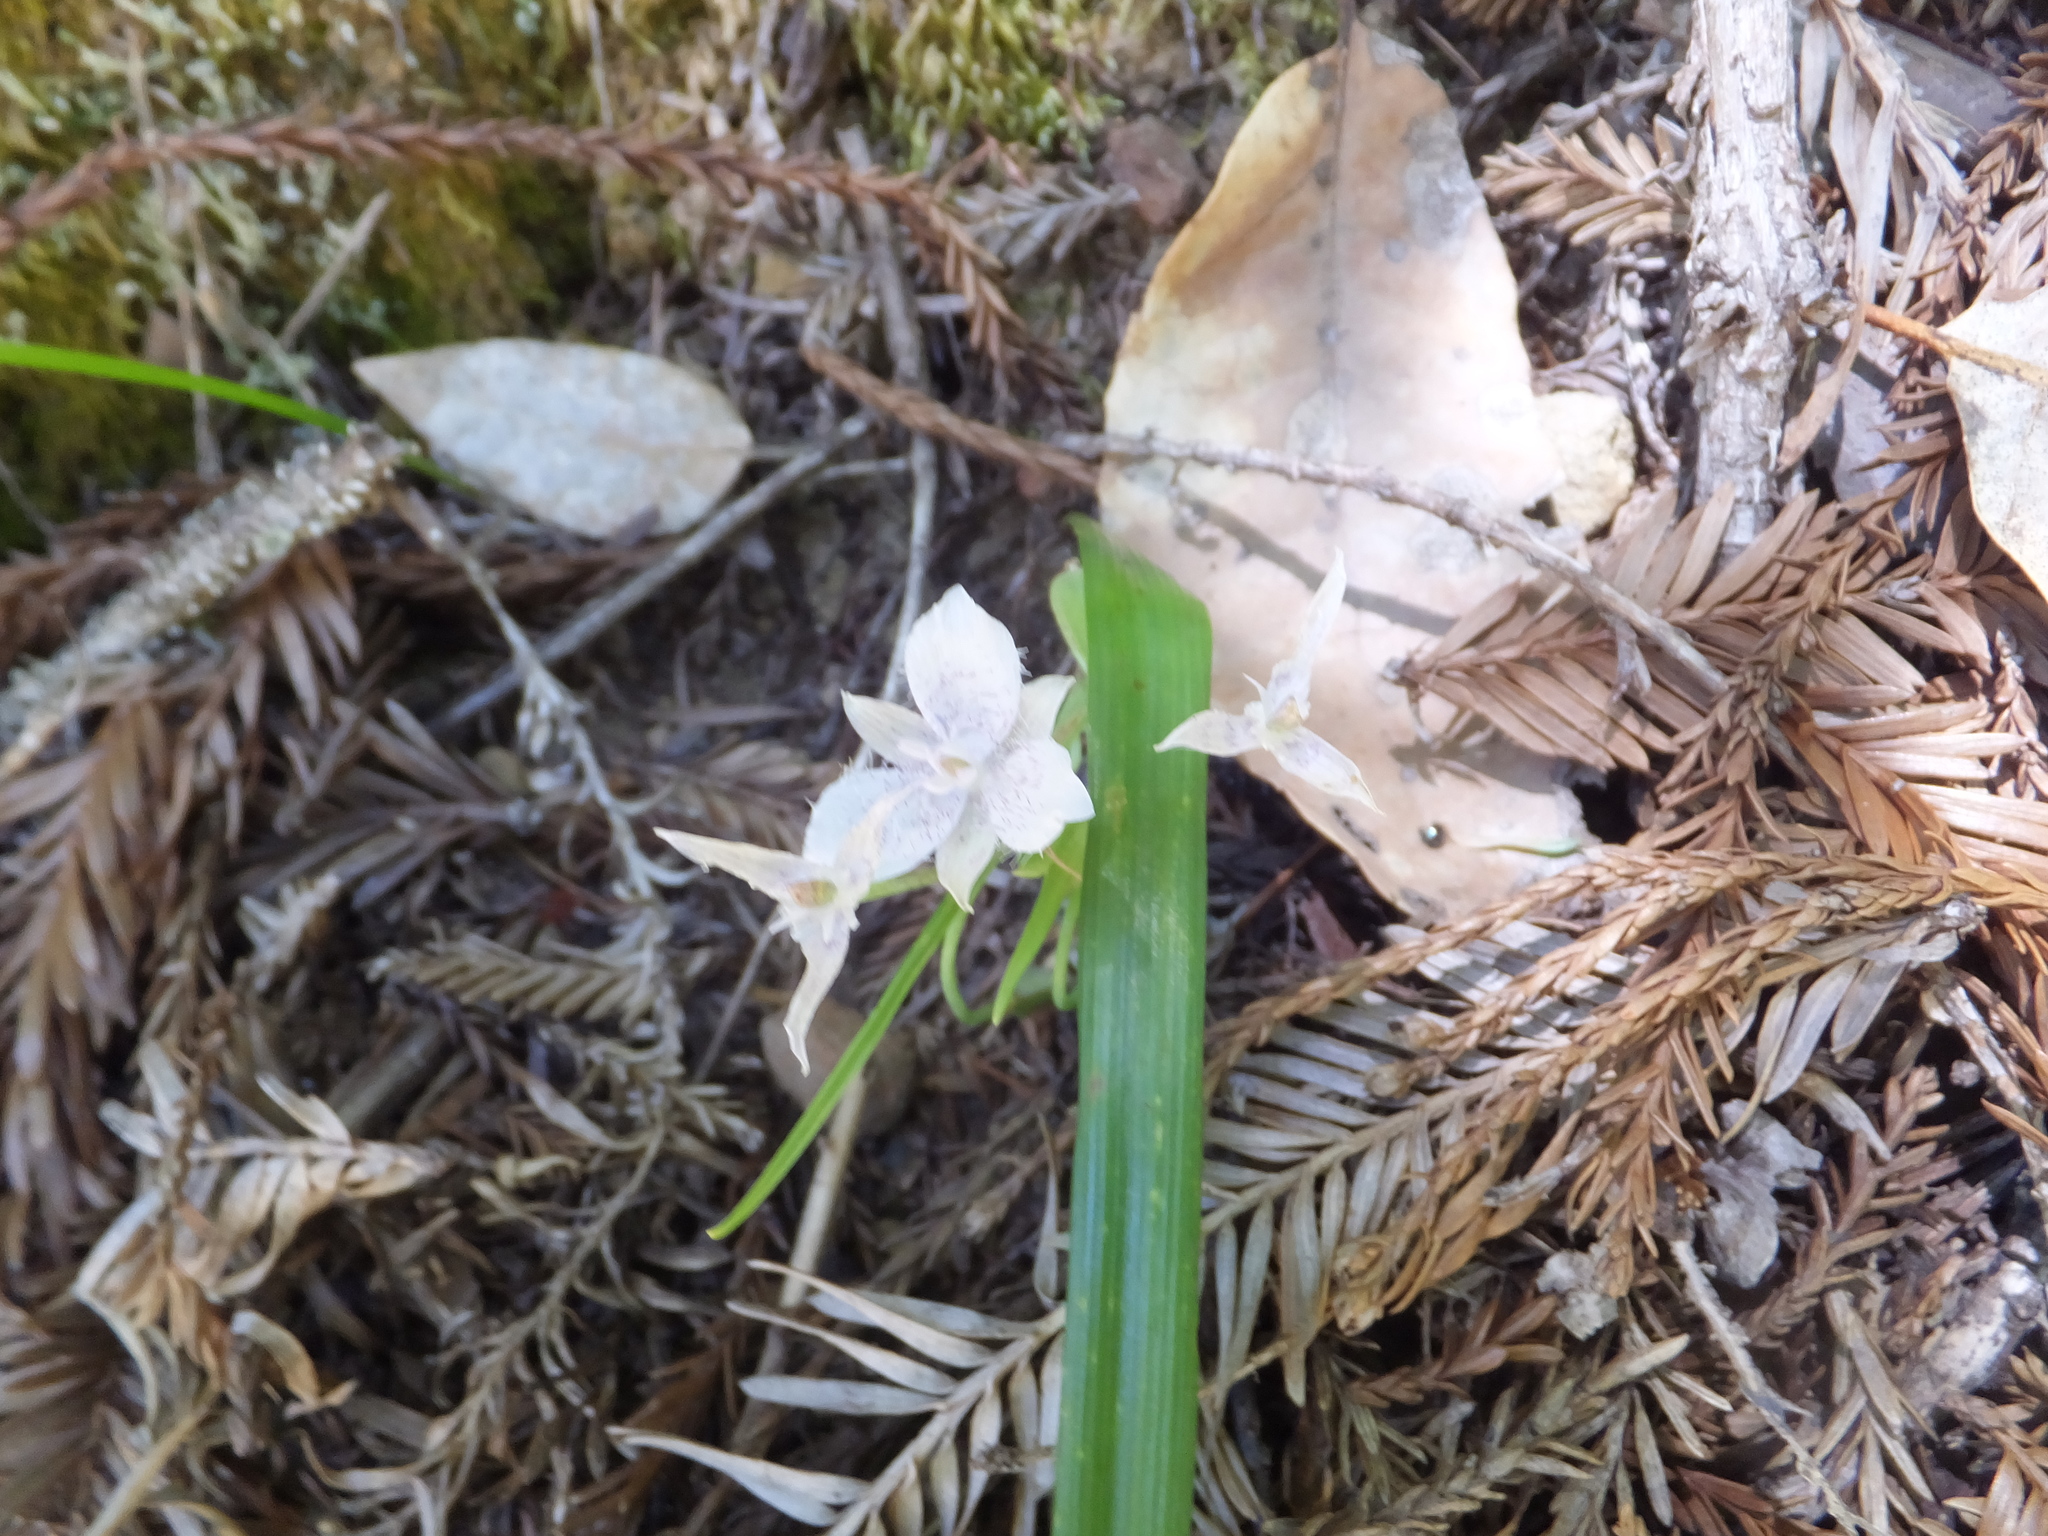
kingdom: Plantae
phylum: Tracheophyta
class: Liliopsida
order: Liliales
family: Liliaceae
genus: Calochortus
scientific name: Calochortus tolmiei
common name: Pussy-ears
